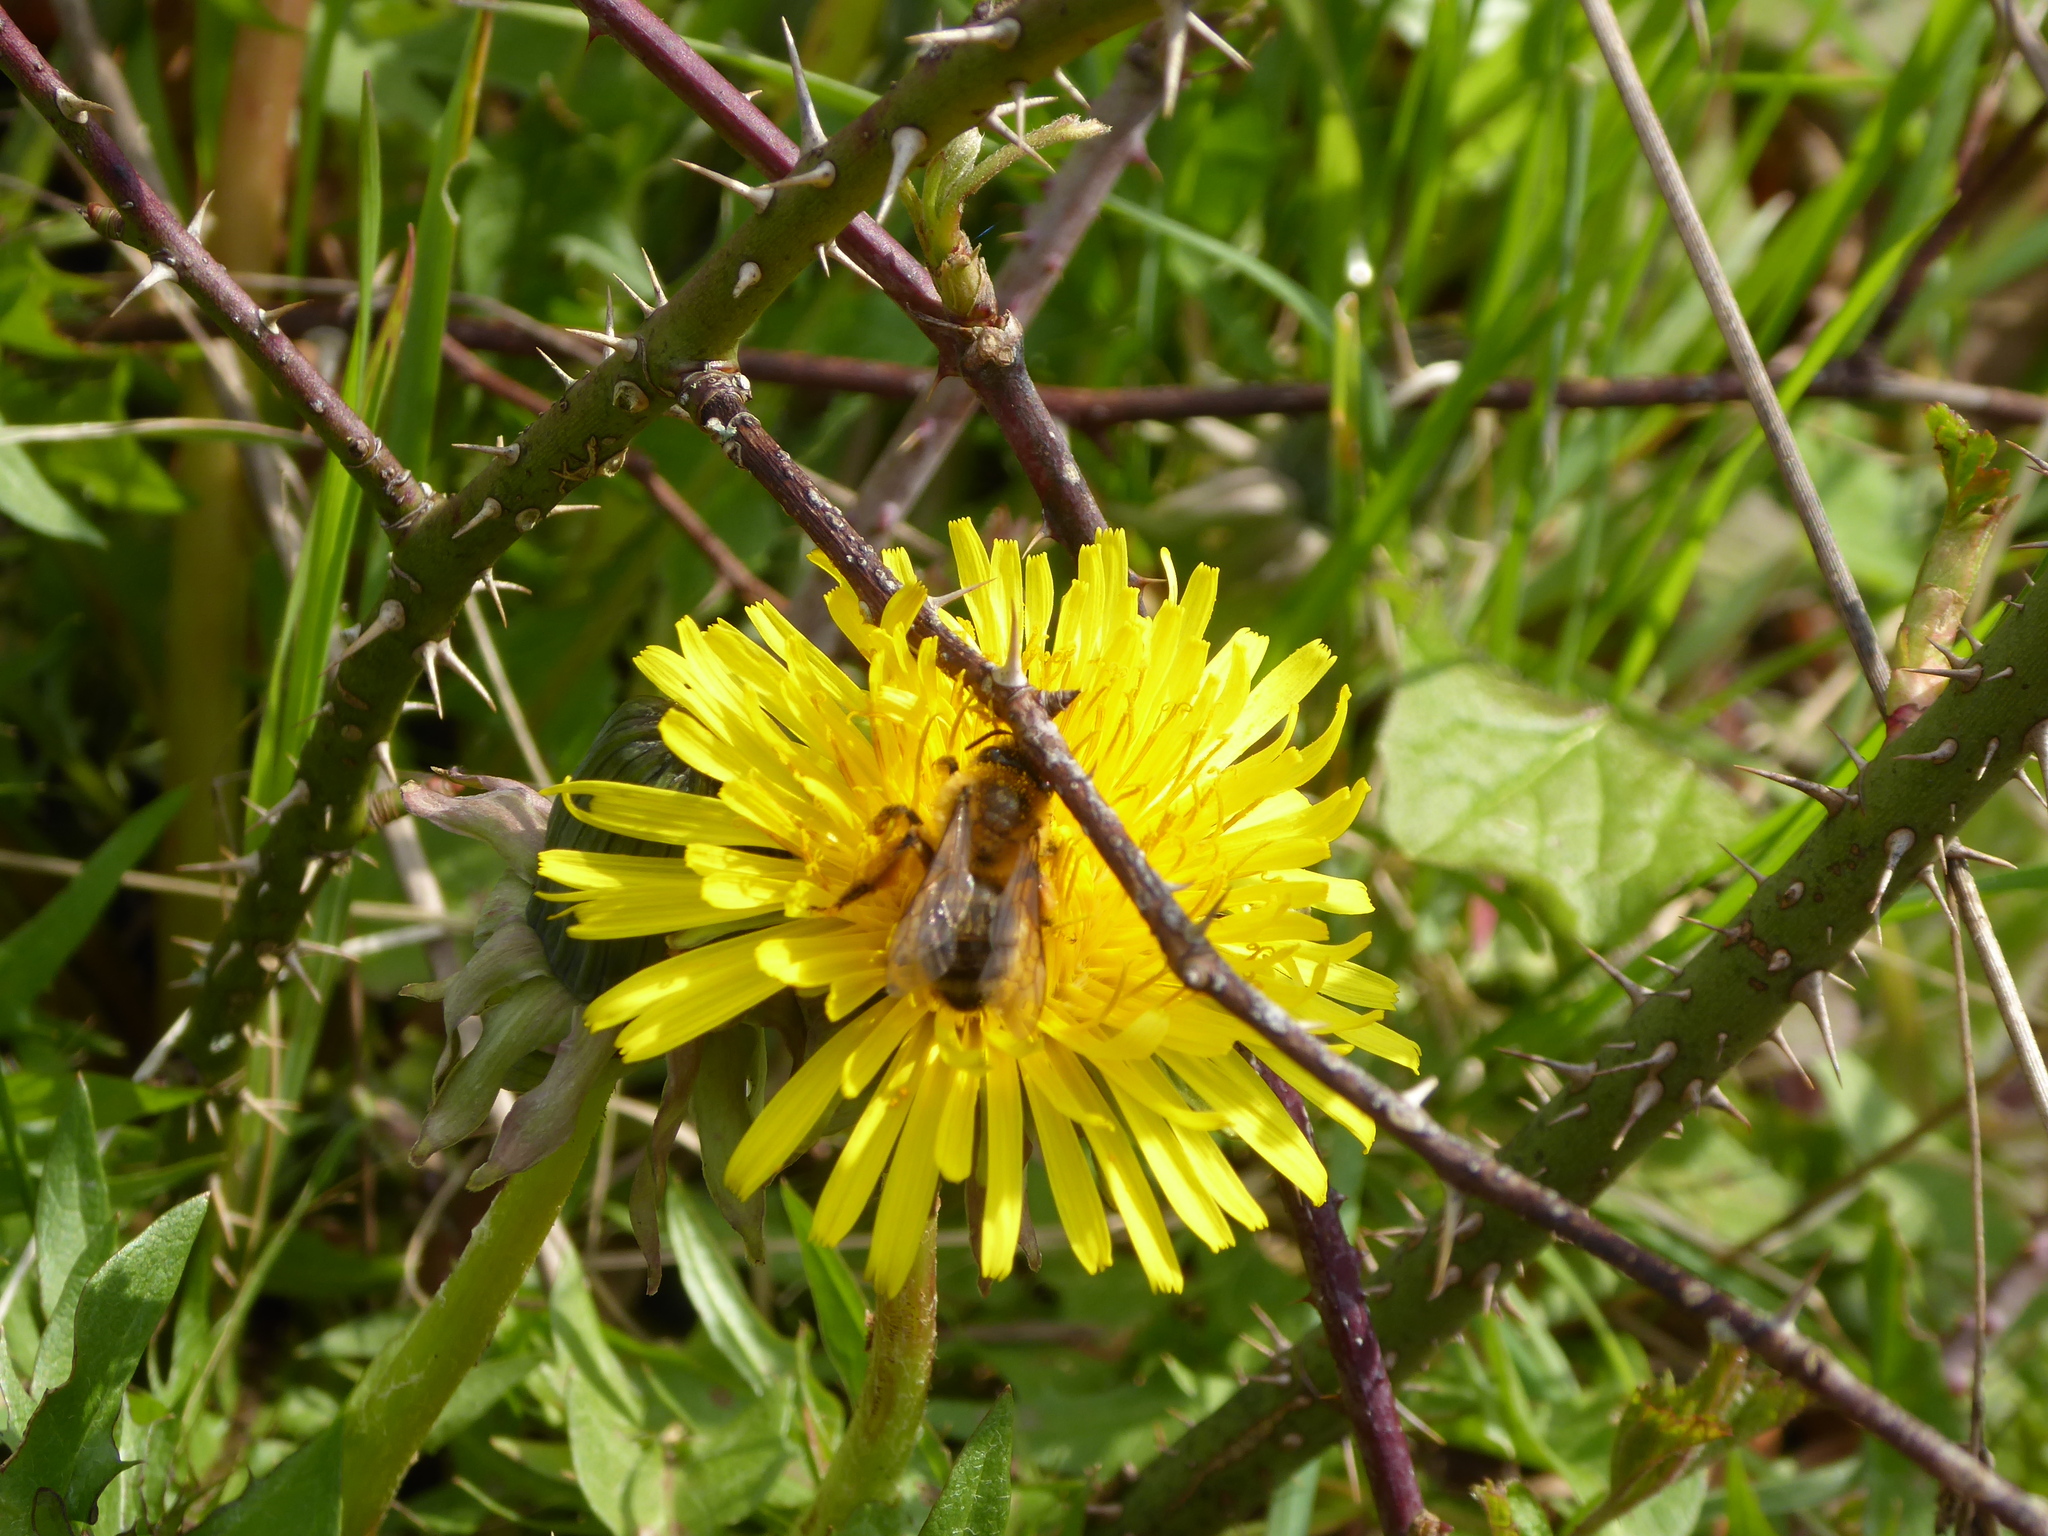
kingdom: Animalia
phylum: Arthropoda
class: Insecta
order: Hymenoptera
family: Apidae
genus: Apis
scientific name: Apis mellifera
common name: Honey bee
